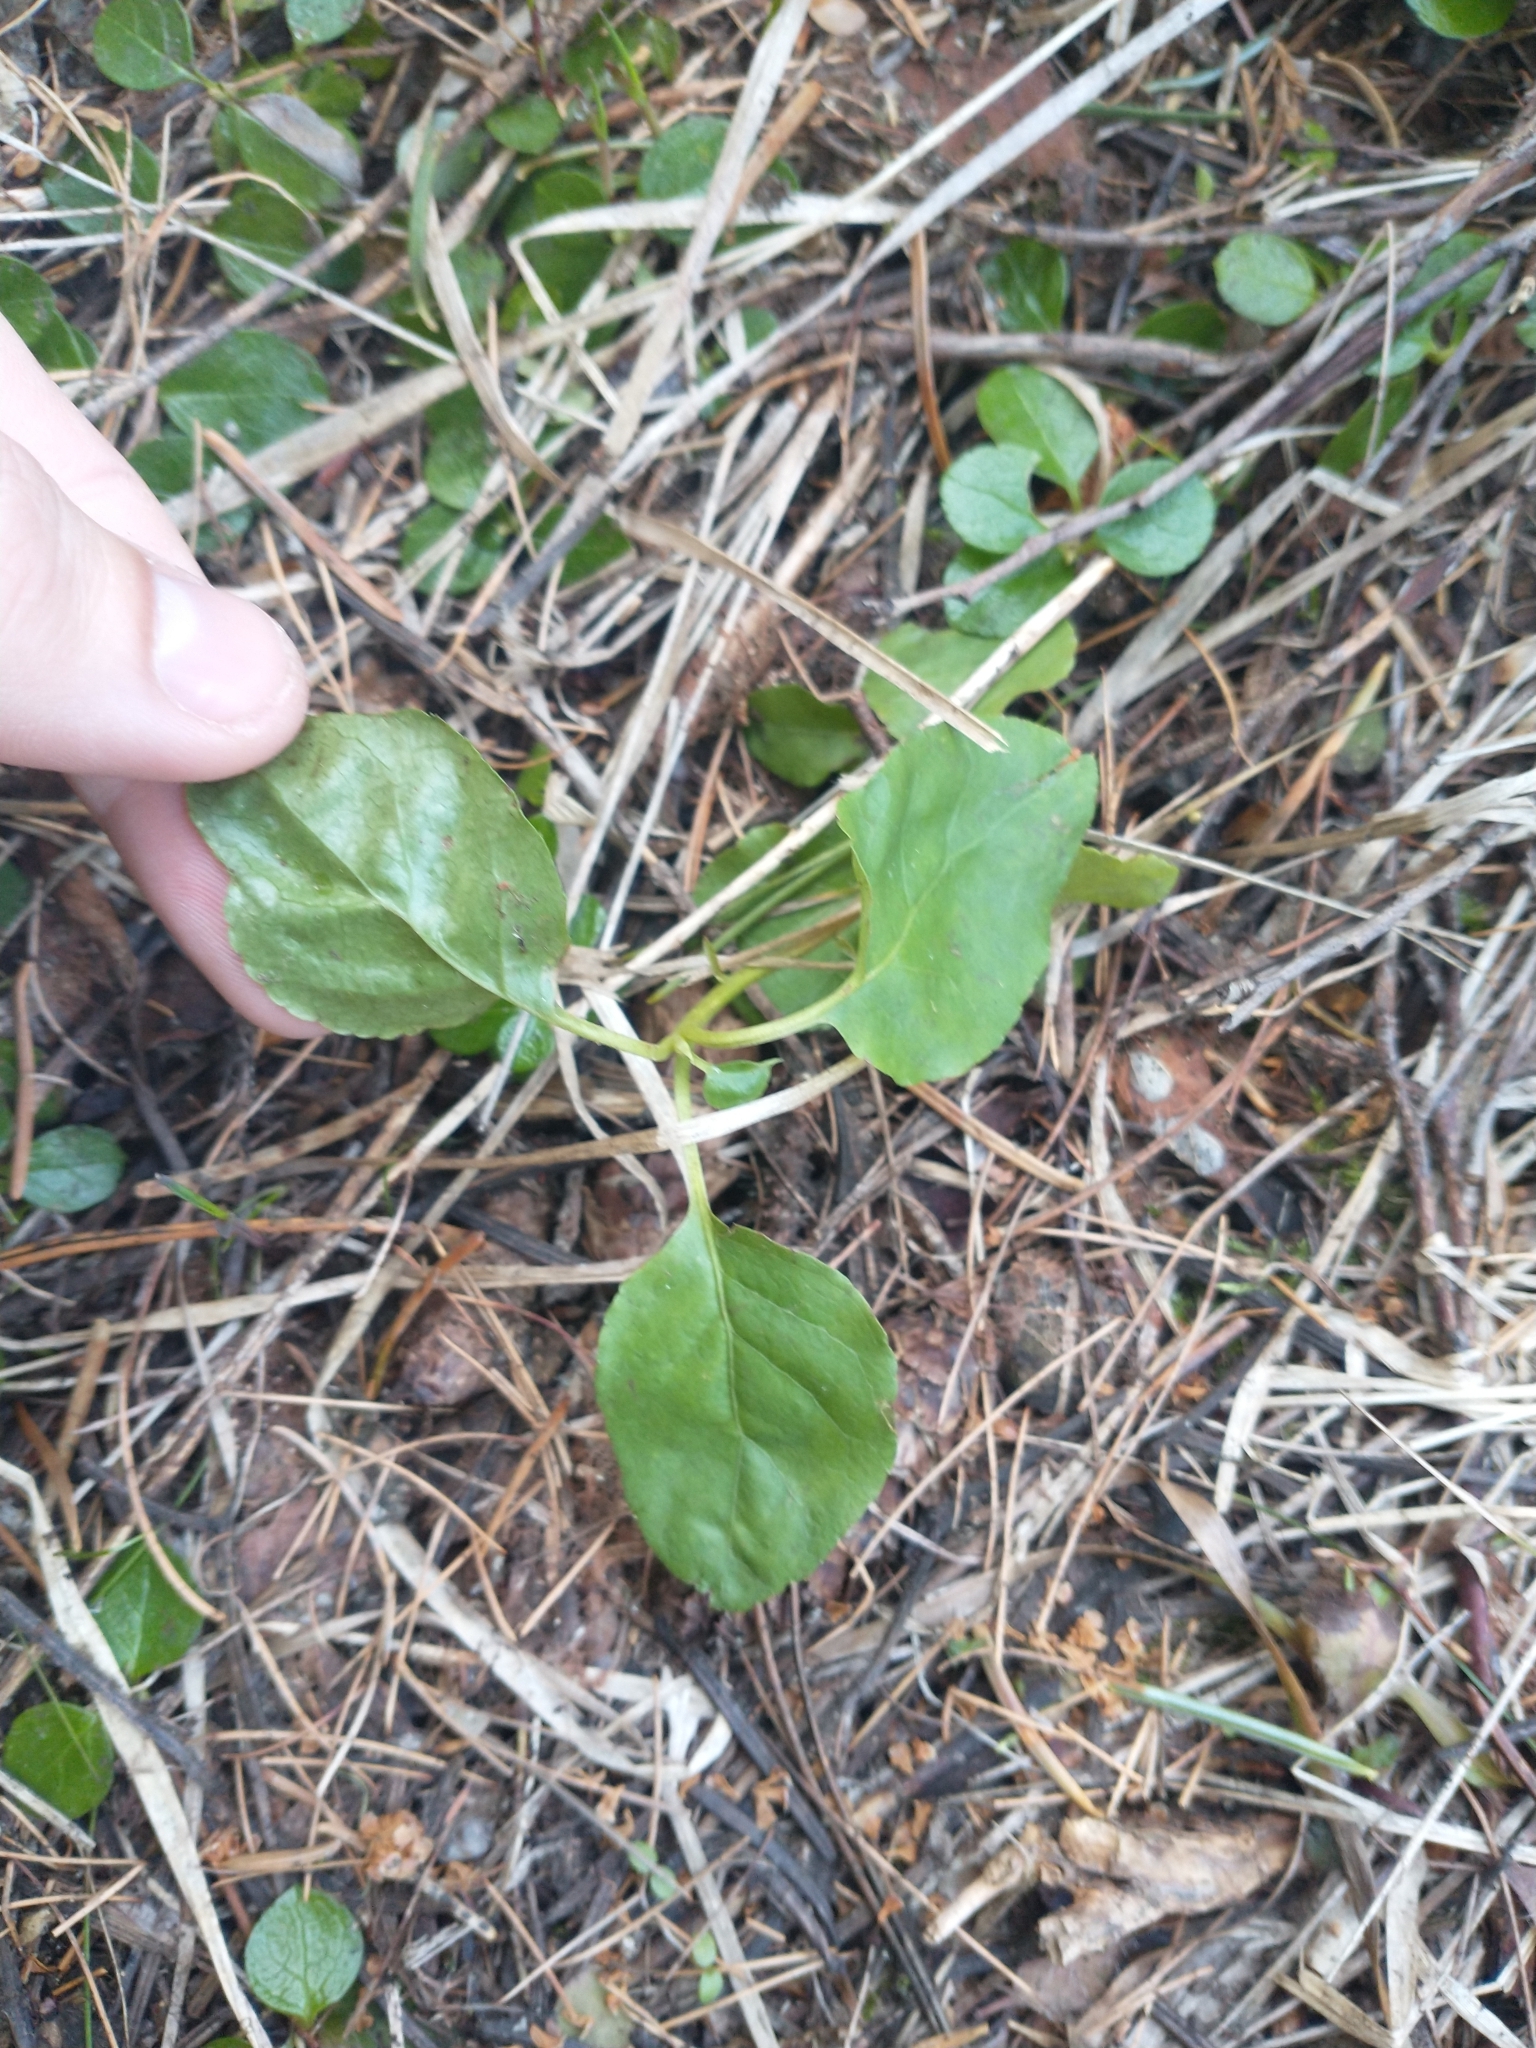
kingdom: Plantae
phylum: Tracheophyta
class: Magnoliopsida
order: Ericales
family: Ericaceae
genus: Orthilia
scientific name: Orthilia secunda
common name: One-sided orthilia
